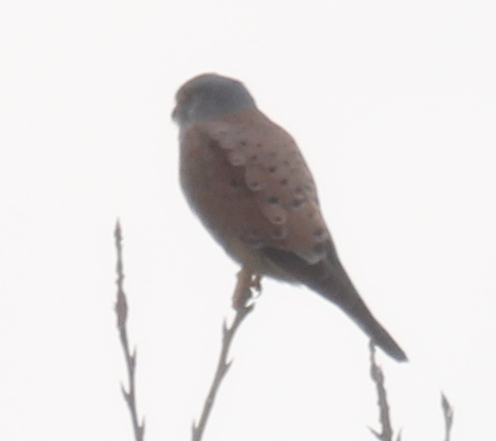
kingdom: Animalia
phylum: Chordata
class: Aves
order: Falconiformes
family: Falconidae
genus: Falco
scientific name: Falco tinnunculus
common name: Common kestrel
